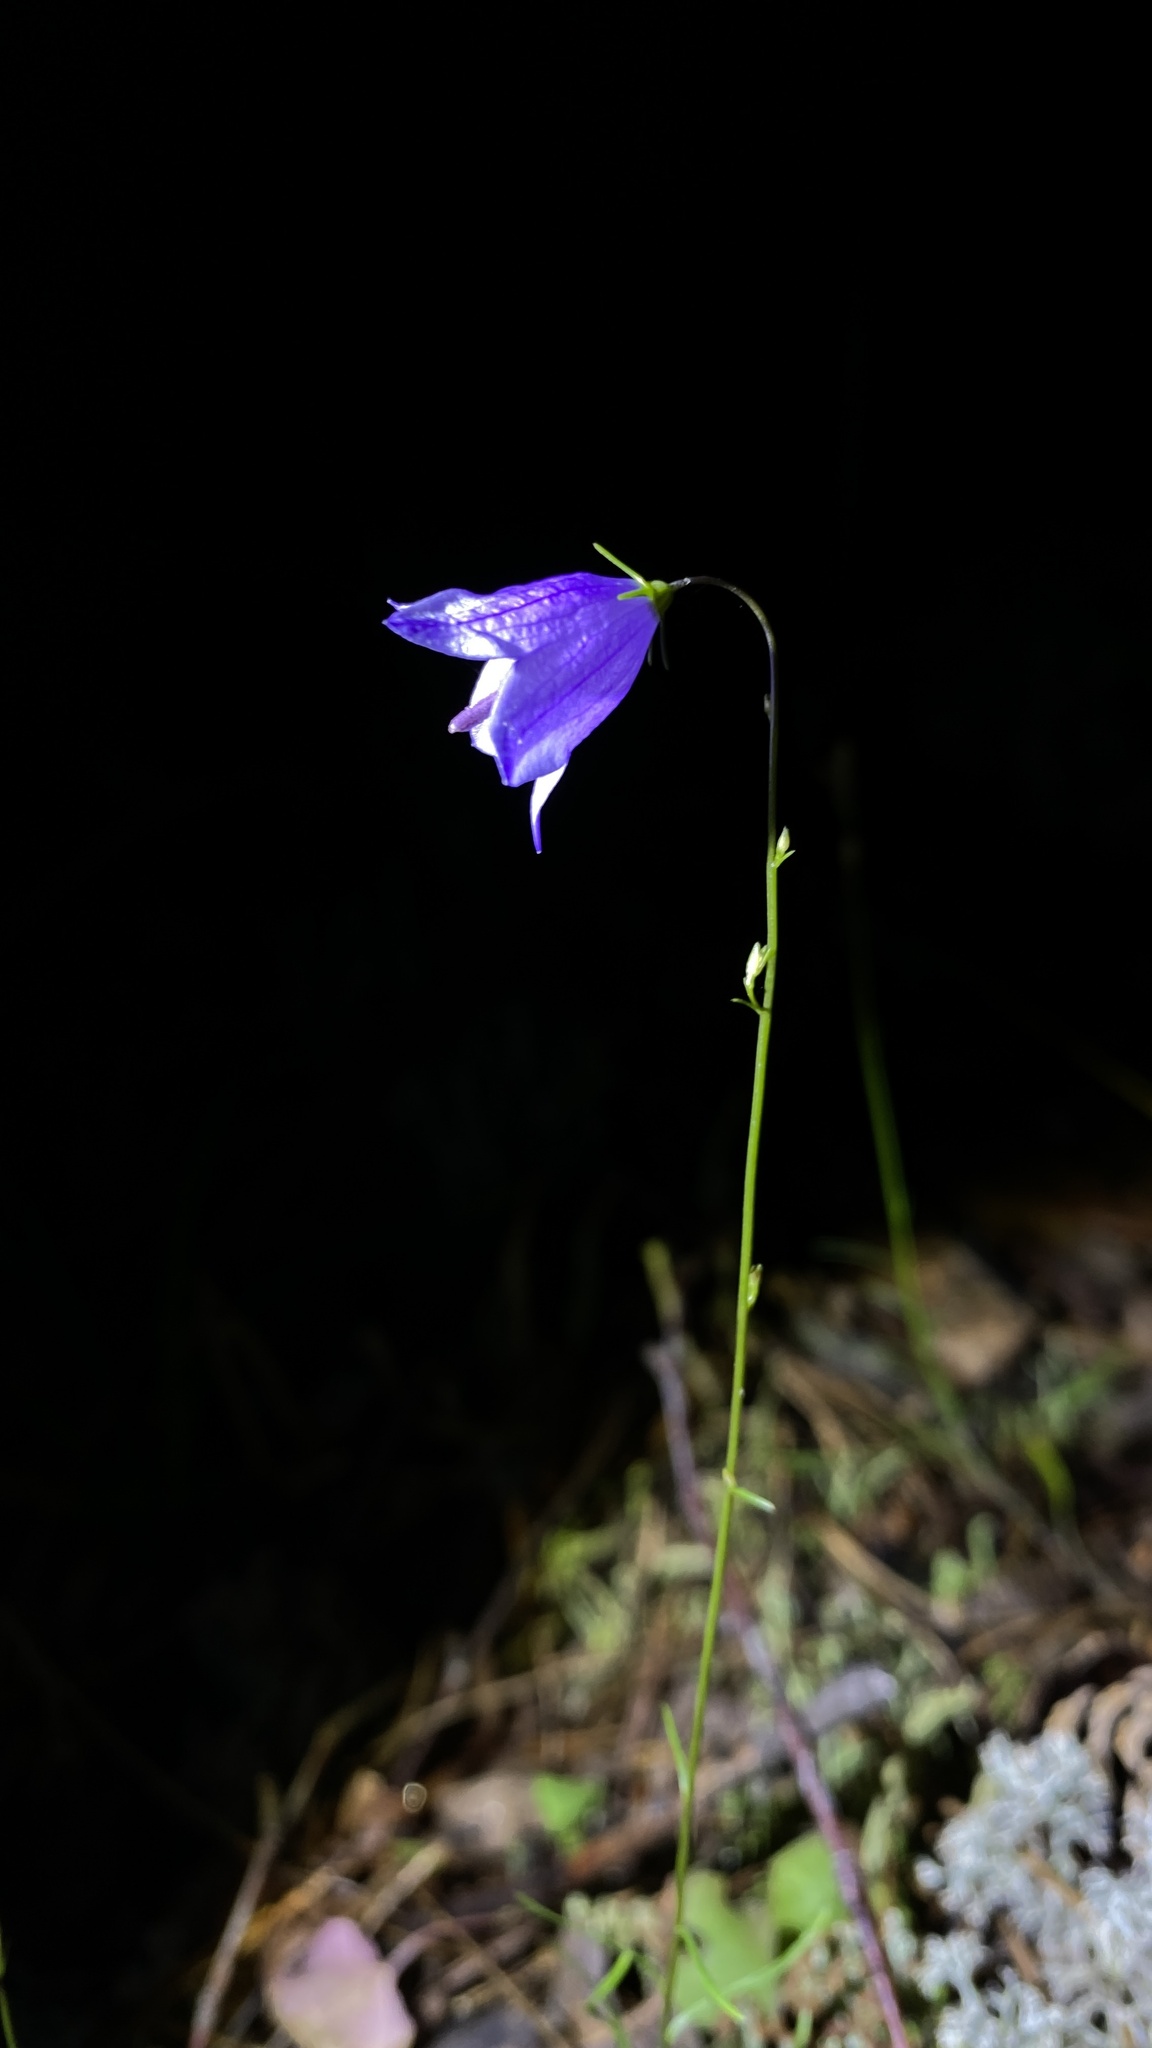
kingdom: Plantae
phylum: Tracheophyta
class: Magnoliopsida
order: Asterales
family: Campanulaceae
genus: Campanula
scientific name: Campanula rotundifolia
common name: Harebell
